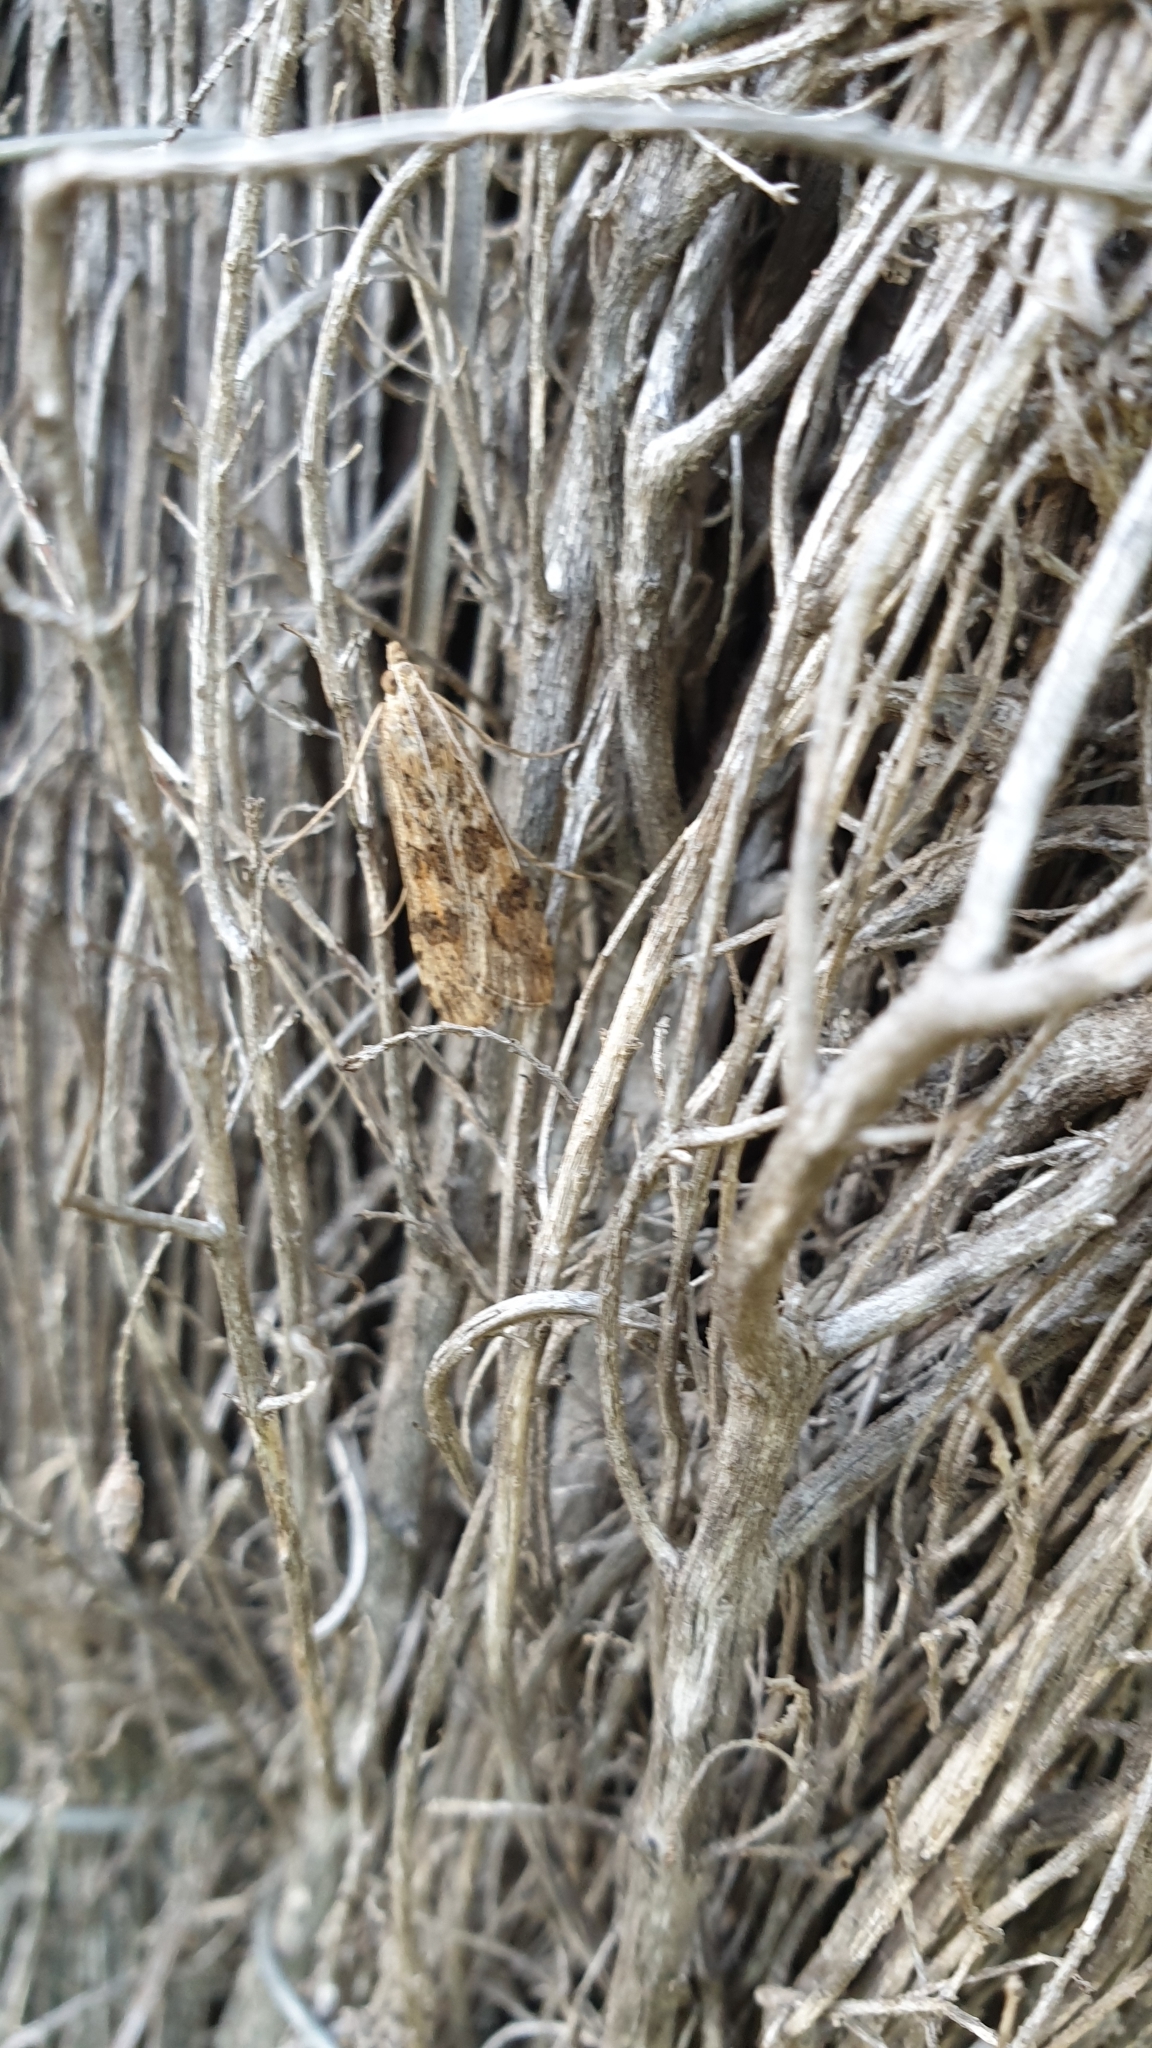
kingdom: Animalia
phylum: Arthropoda
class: Insecta
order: Lepidoptera
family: Crambidae
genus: Nomophila
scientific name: Nomophila noctuella
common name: Rush veneer
